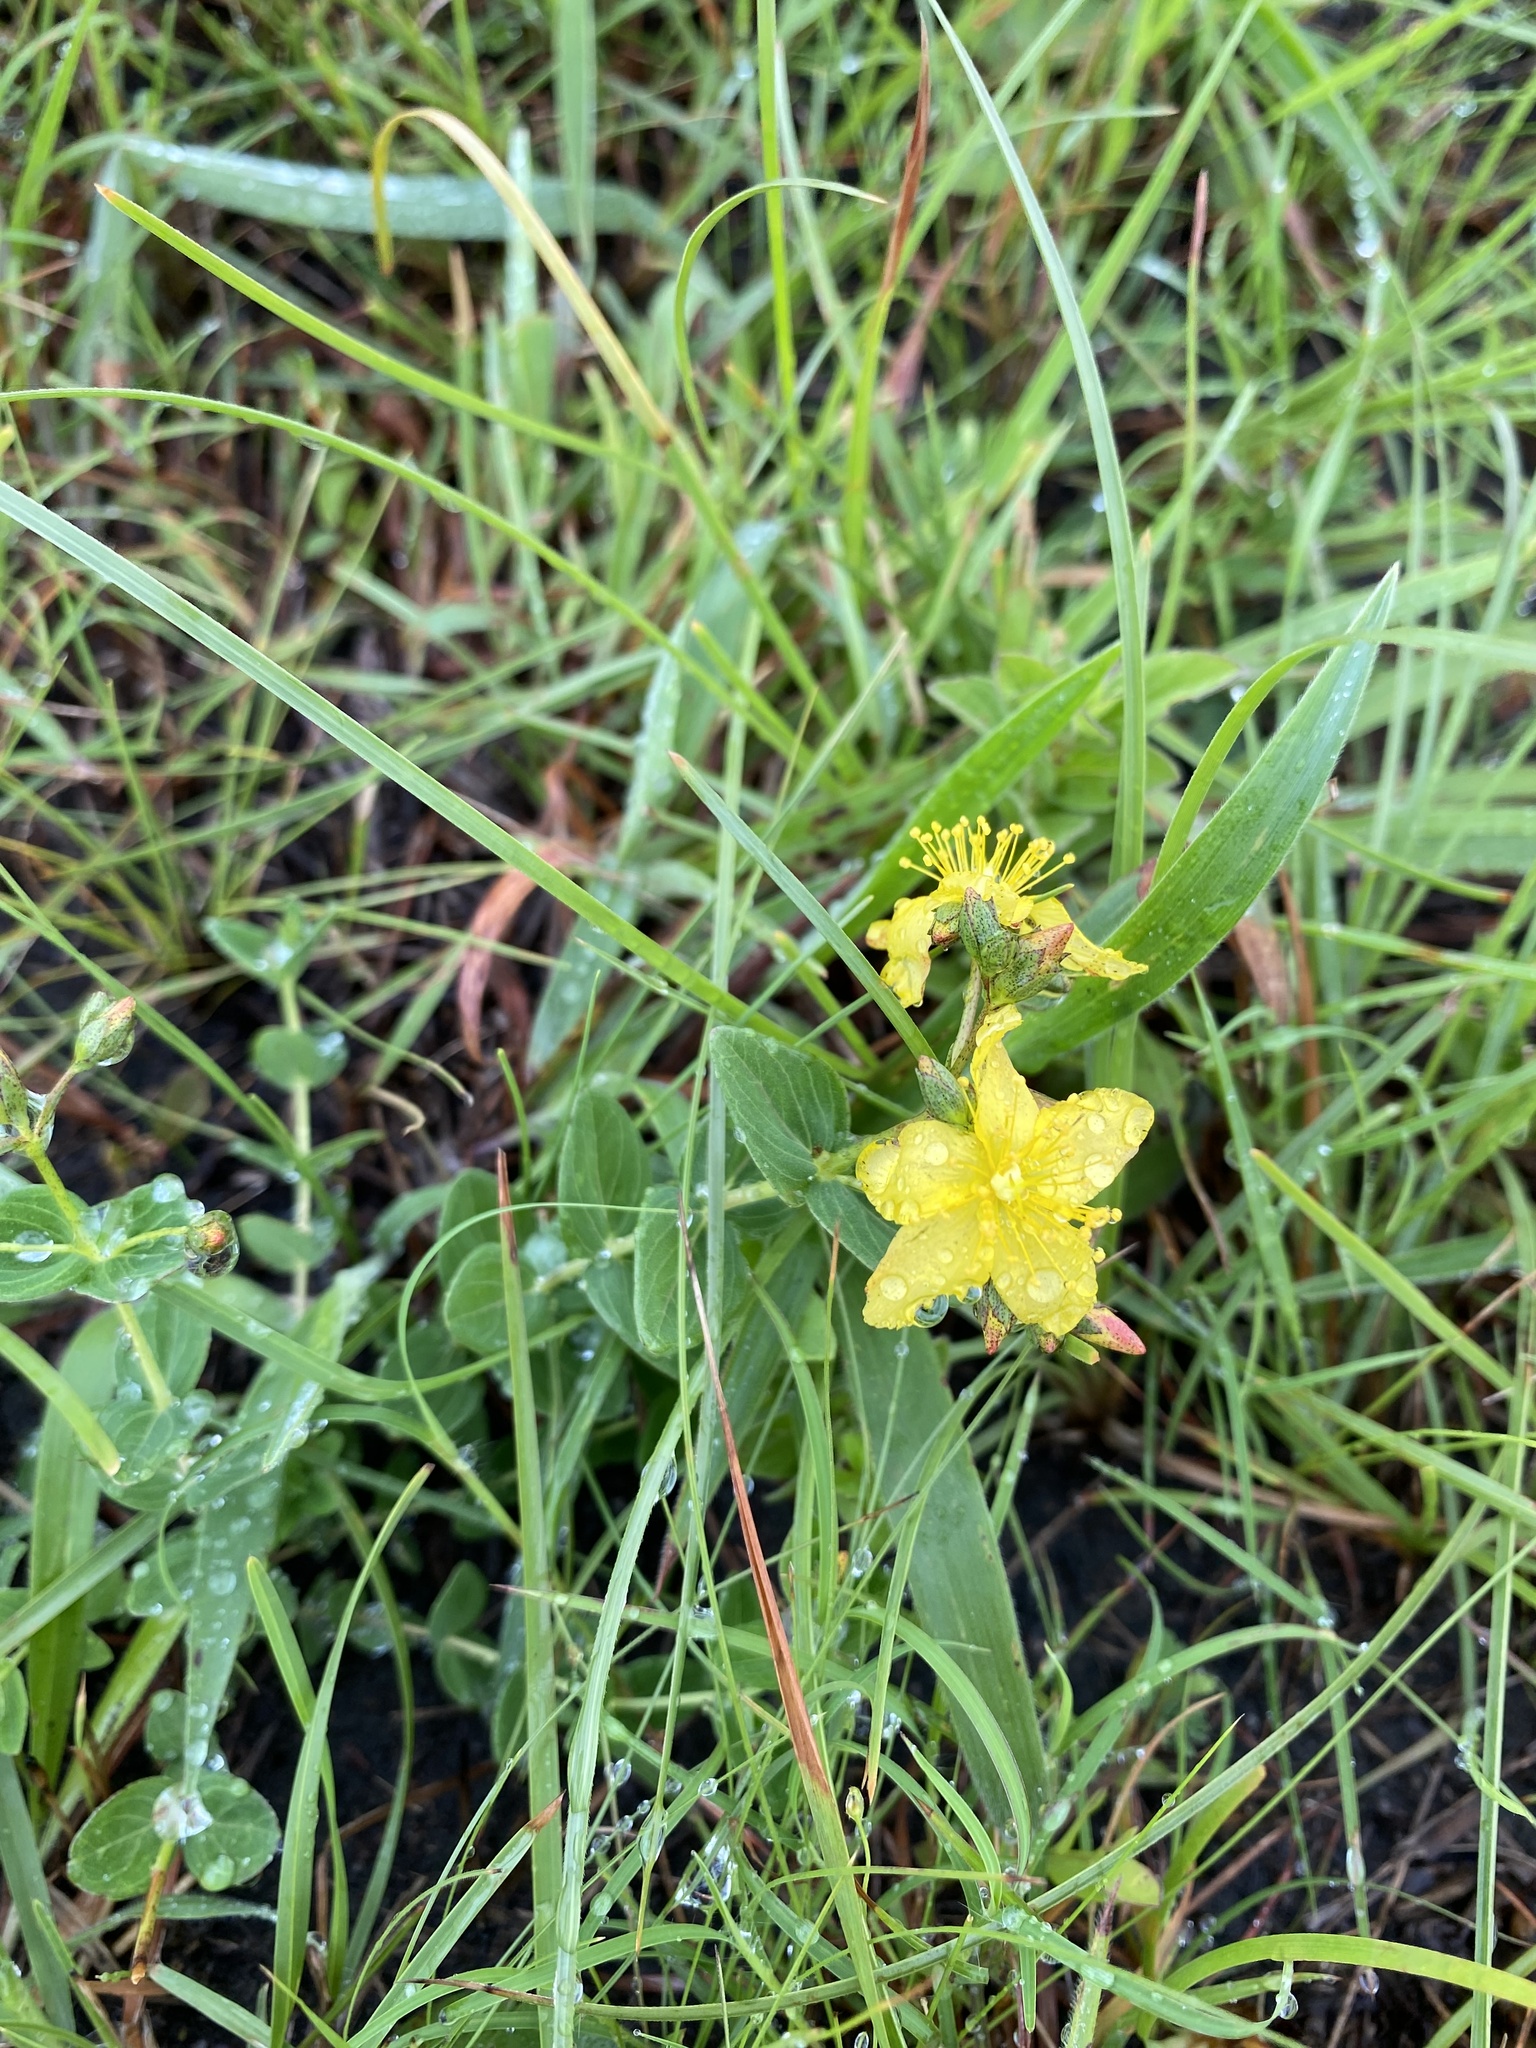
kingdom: Plantae
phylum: Tracheophyta
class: Magnoliopsida
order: Malpighiales
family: Hypericaceae
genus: Hypericum
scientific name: Hypericum aethiopicum
